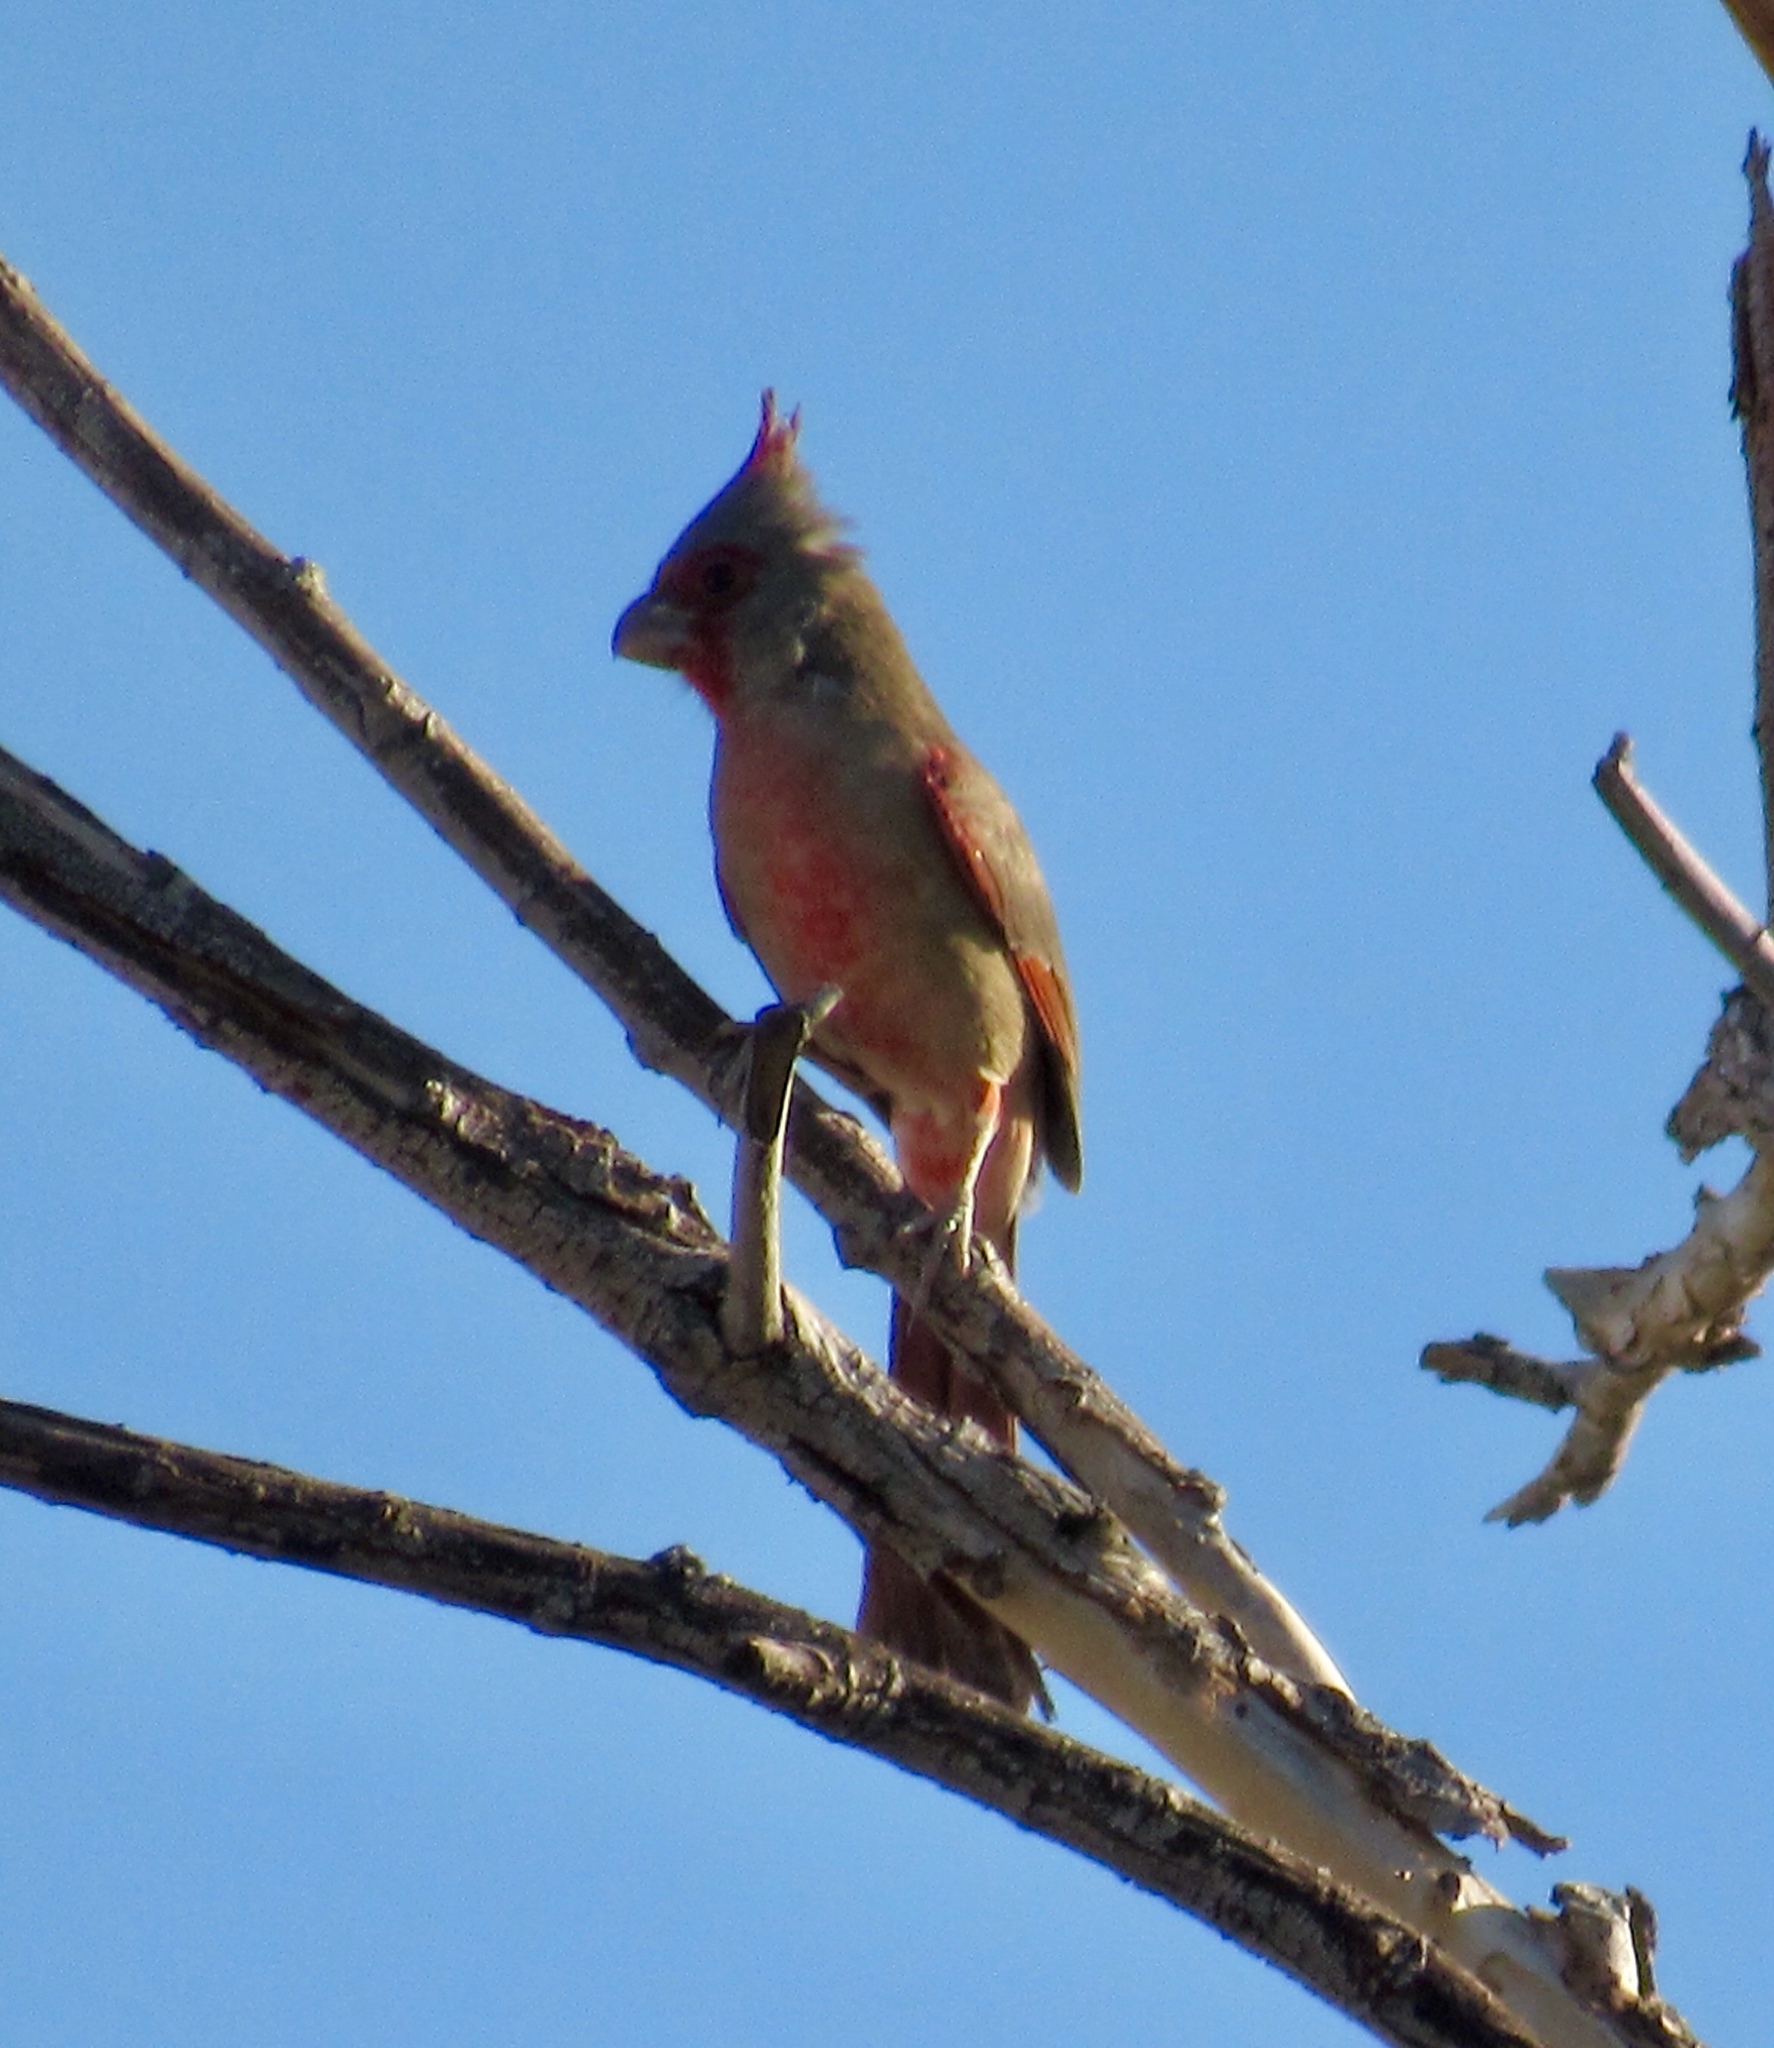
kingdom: Animalia
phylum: Chordata
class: Aves
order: Passeriformes
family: Cardinalidae
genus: Cardinalis
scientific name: Cardinalis sinuatus
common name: Pyrrhuloxia
